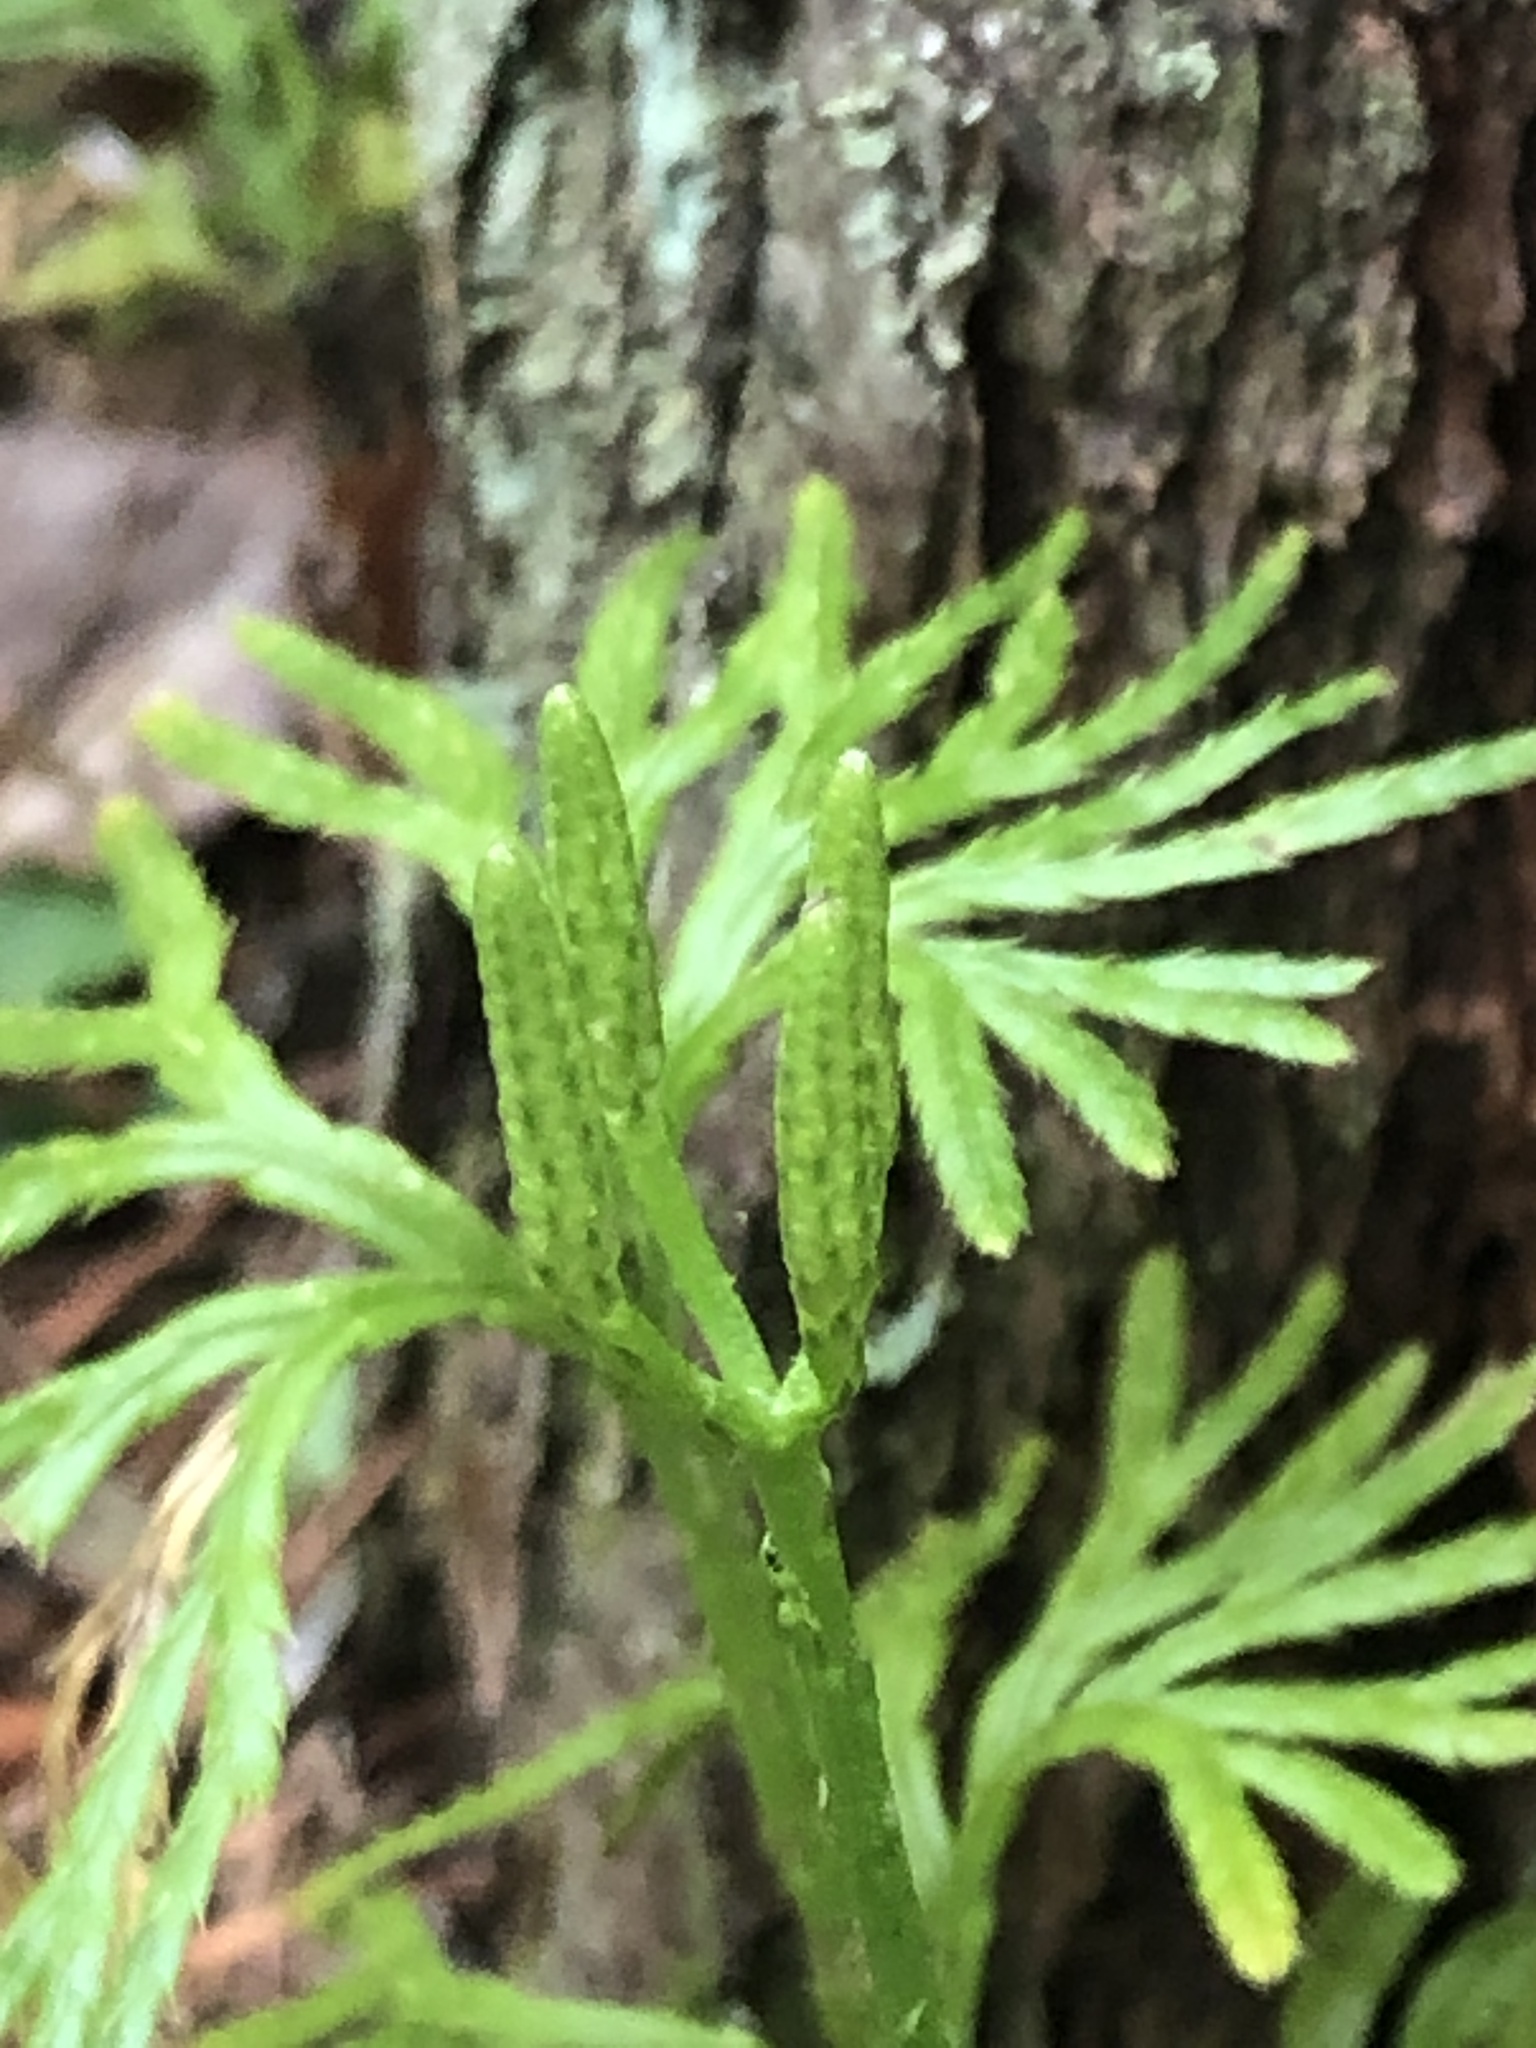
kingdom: Plantae
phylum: Tracheophyta
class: Lycopodiopsida
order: Lycopodiales
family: Lycopodiaceae
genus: Diphasiastrum
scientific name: Diphasiastrum digitatum
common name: Southern running-pine
